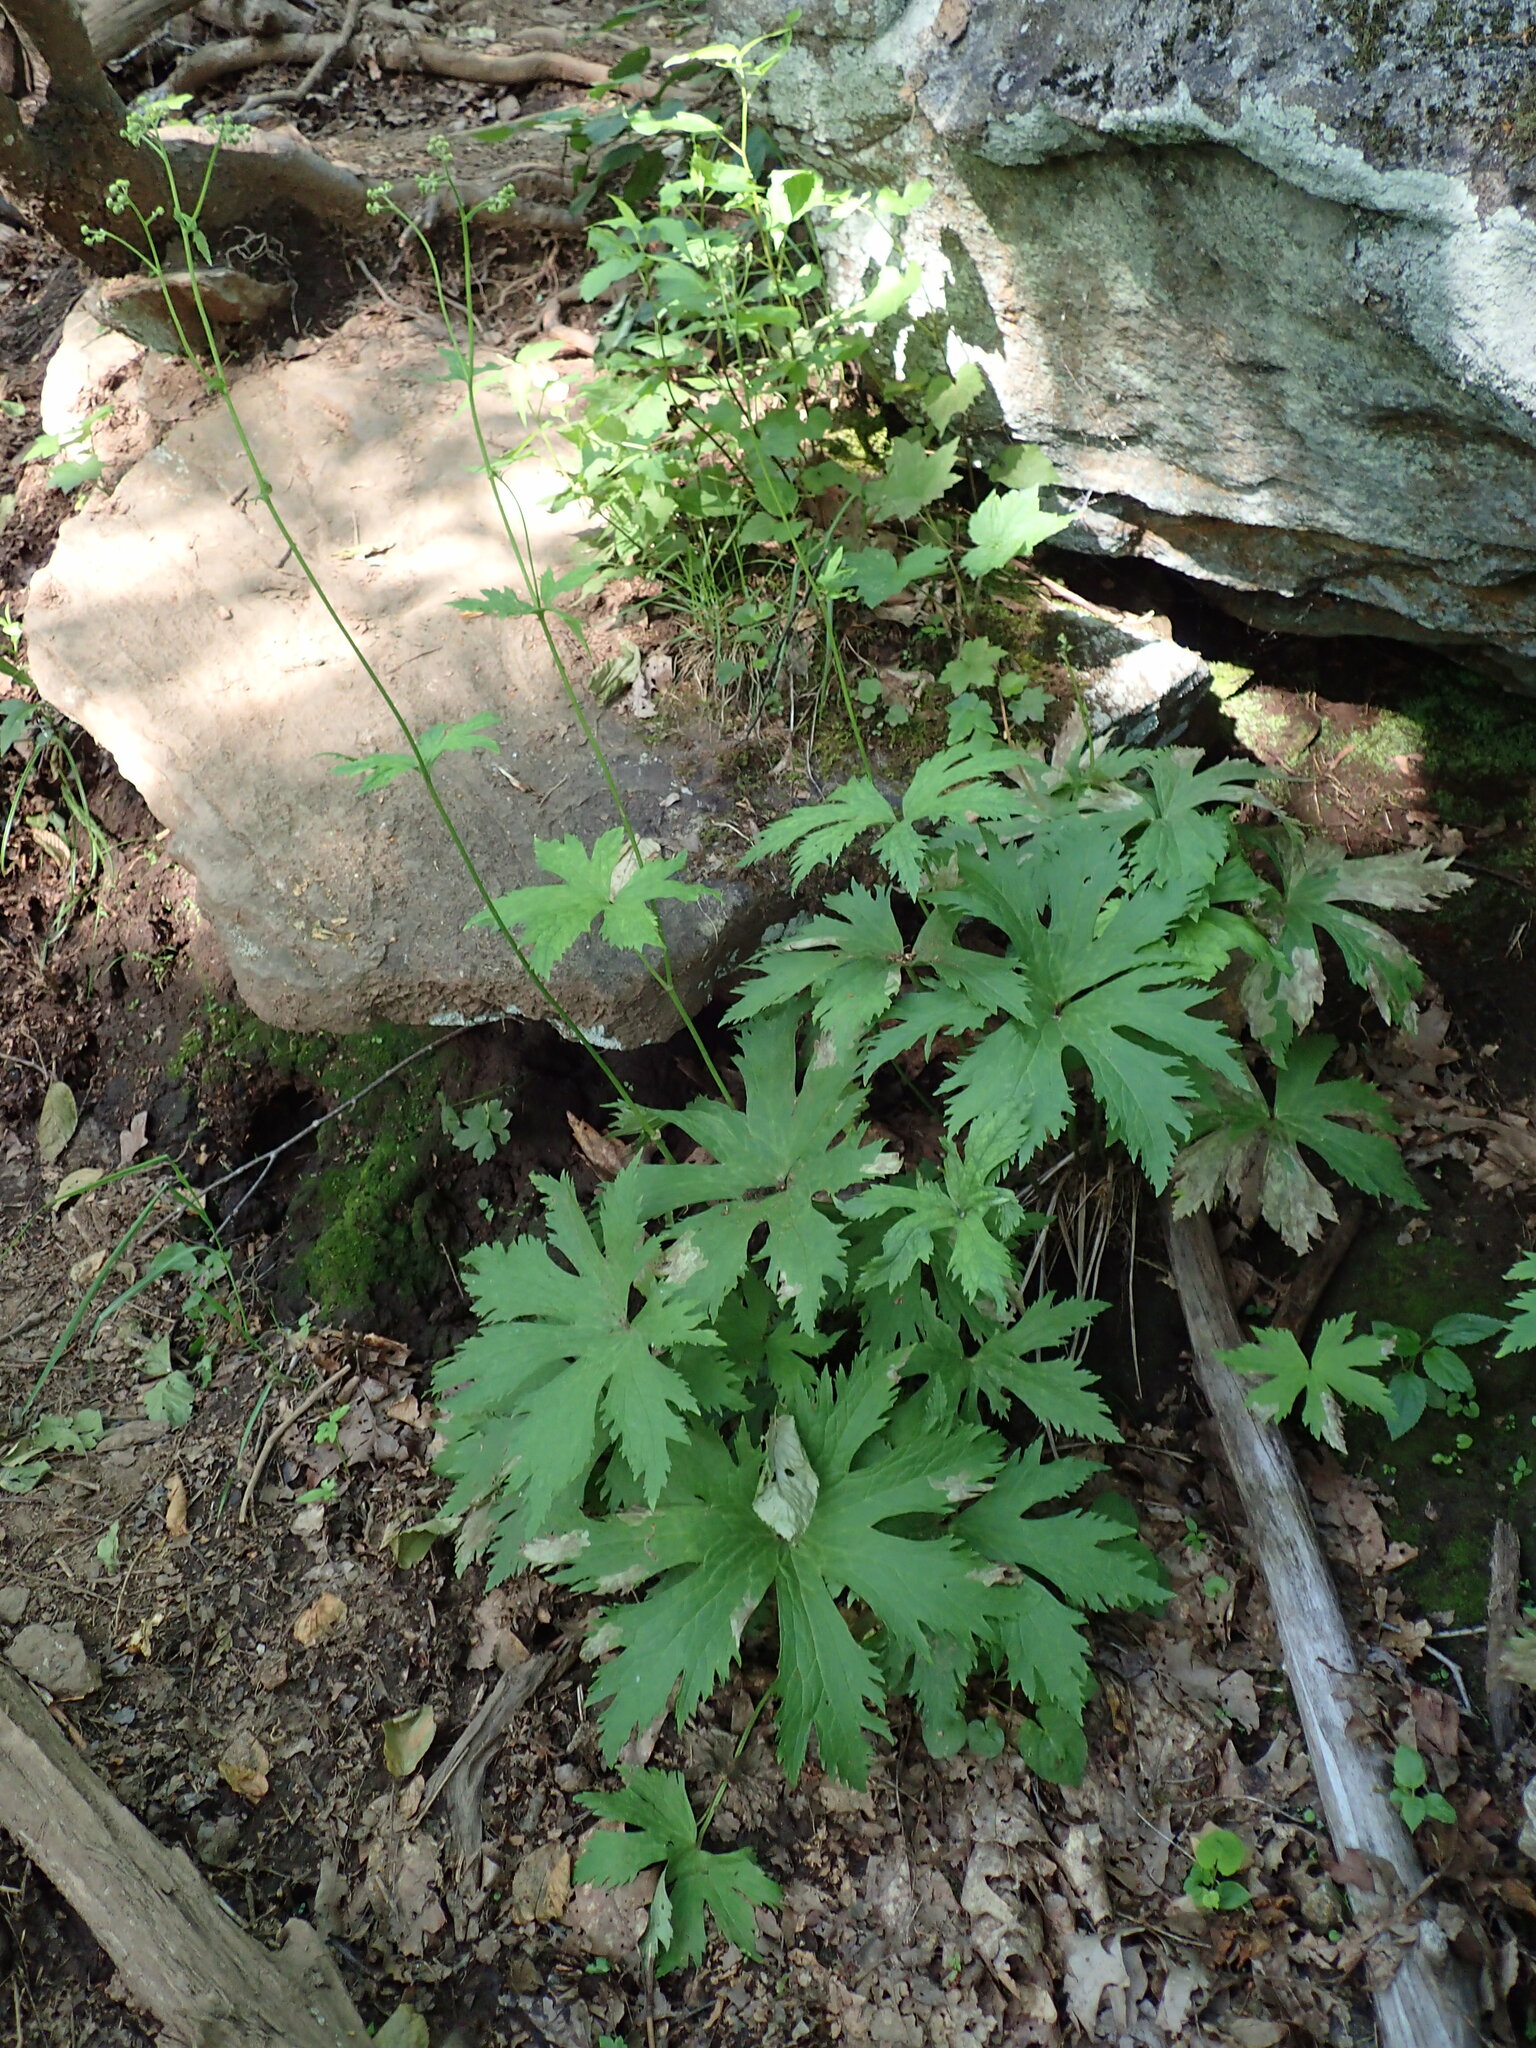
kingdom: Plantae
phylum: Tracheophyta
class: Magnoliopsida
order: Ranunculales
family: Ranunculaceae
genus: Trautvetteria
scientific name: Trautvetteria carolinensis
